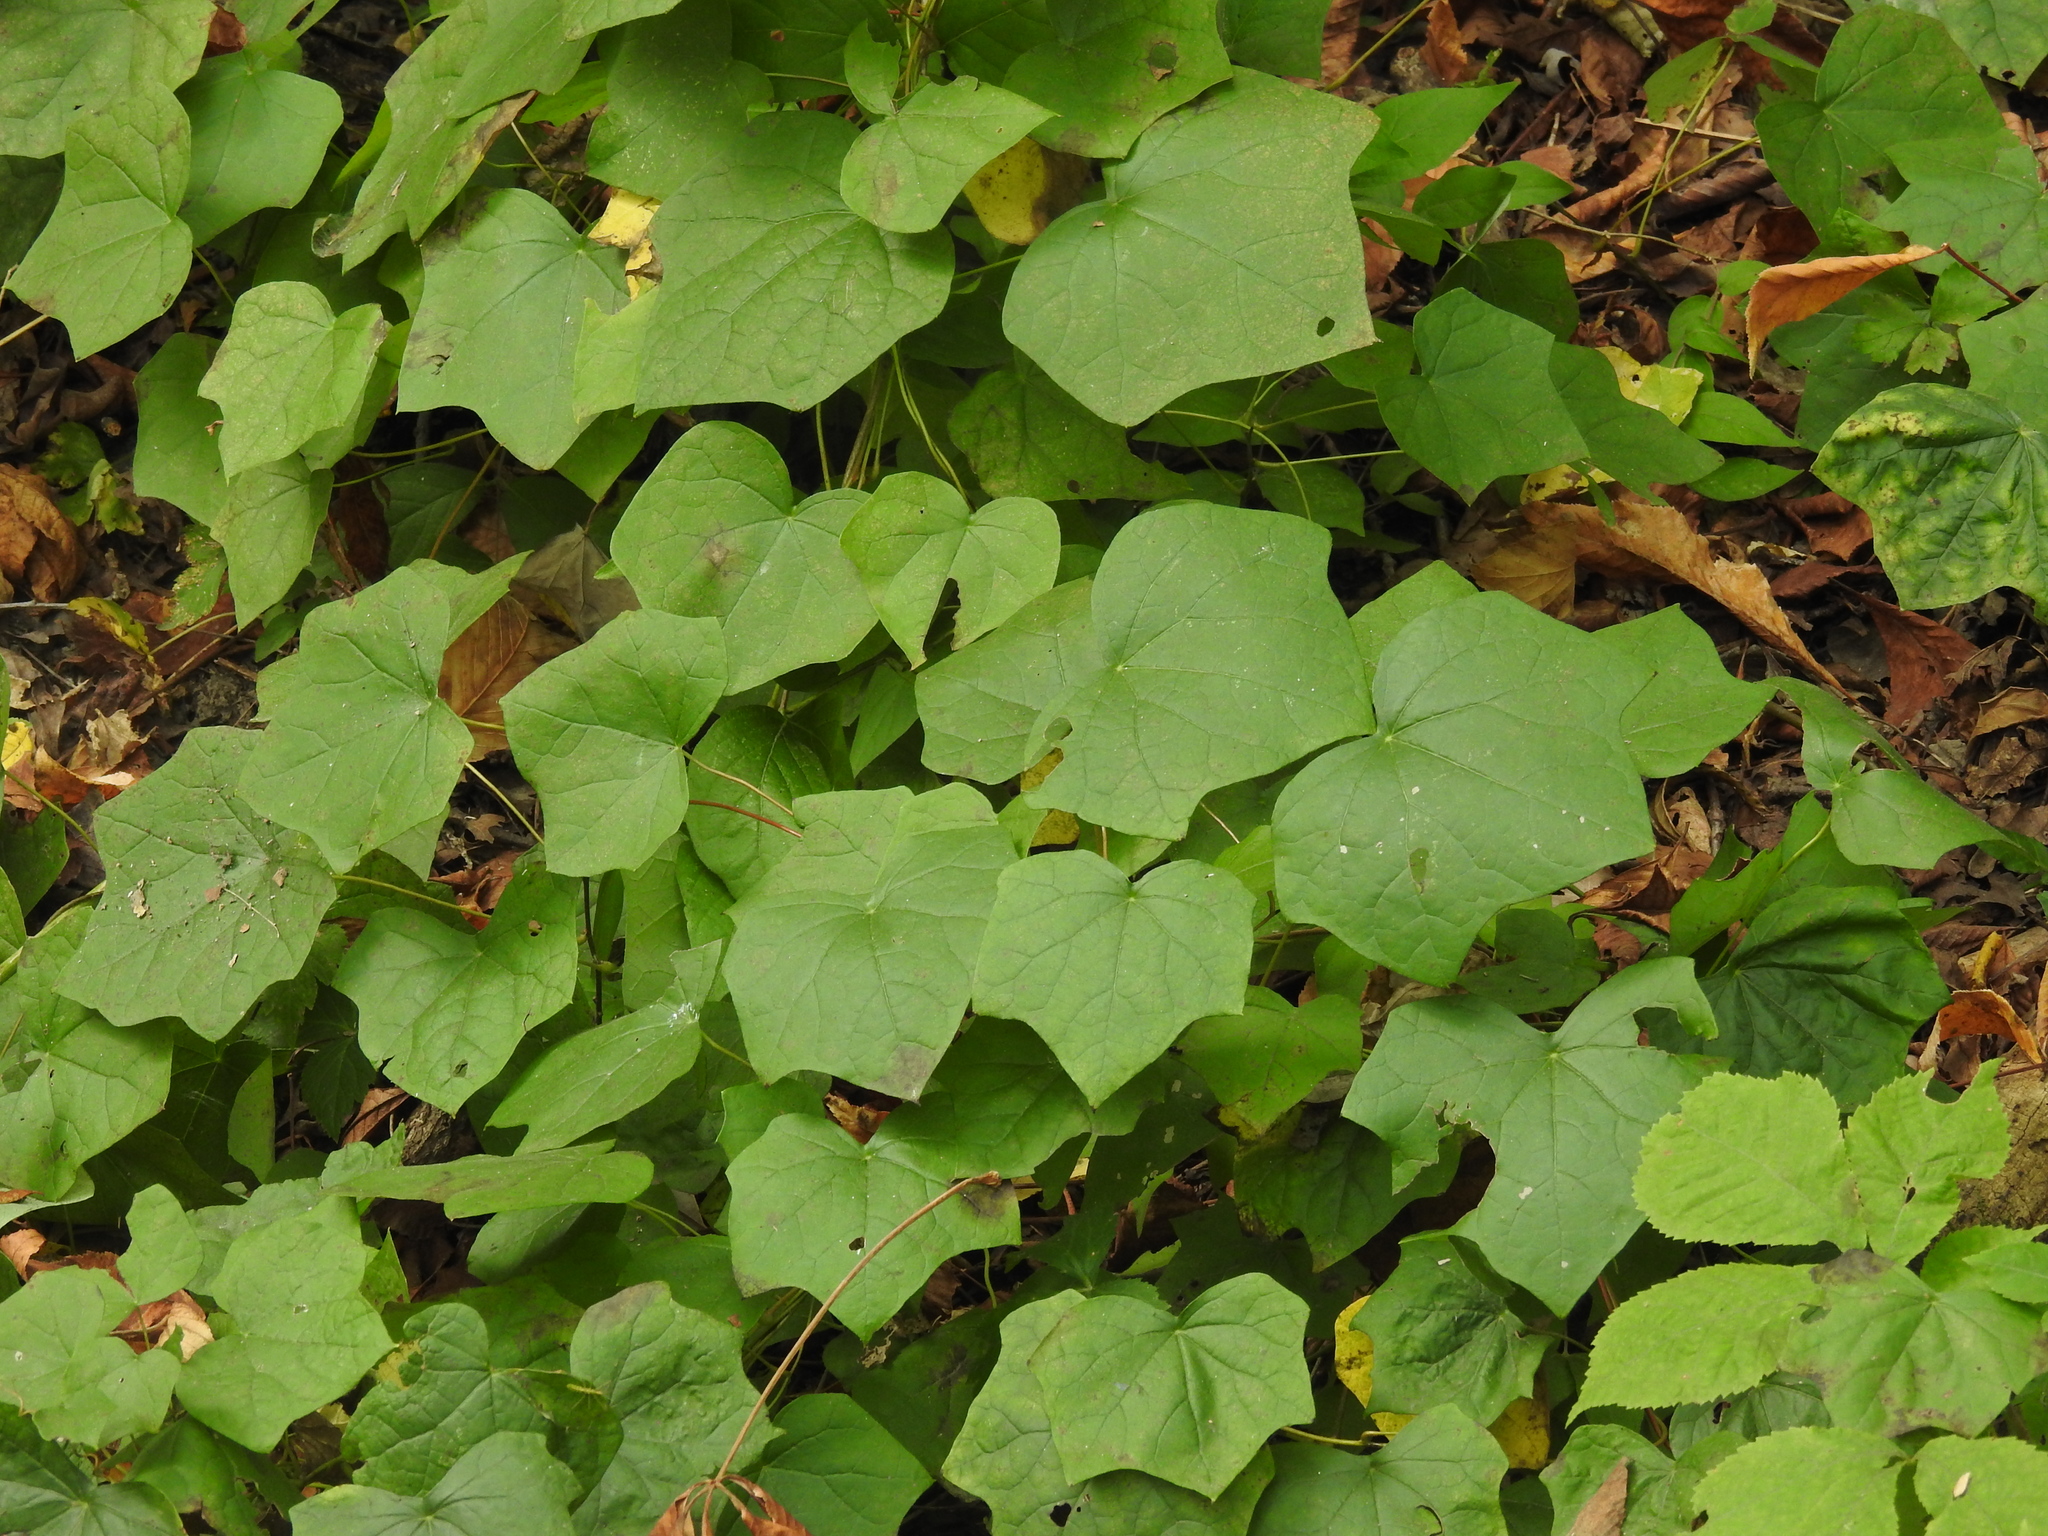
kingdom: Plantae
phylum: Tracheophyta
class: Magnoliopsida
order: Ranunculales
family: Menispermaceae
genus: Menispermum
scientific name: Menispermum canadense
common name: Moonseed
